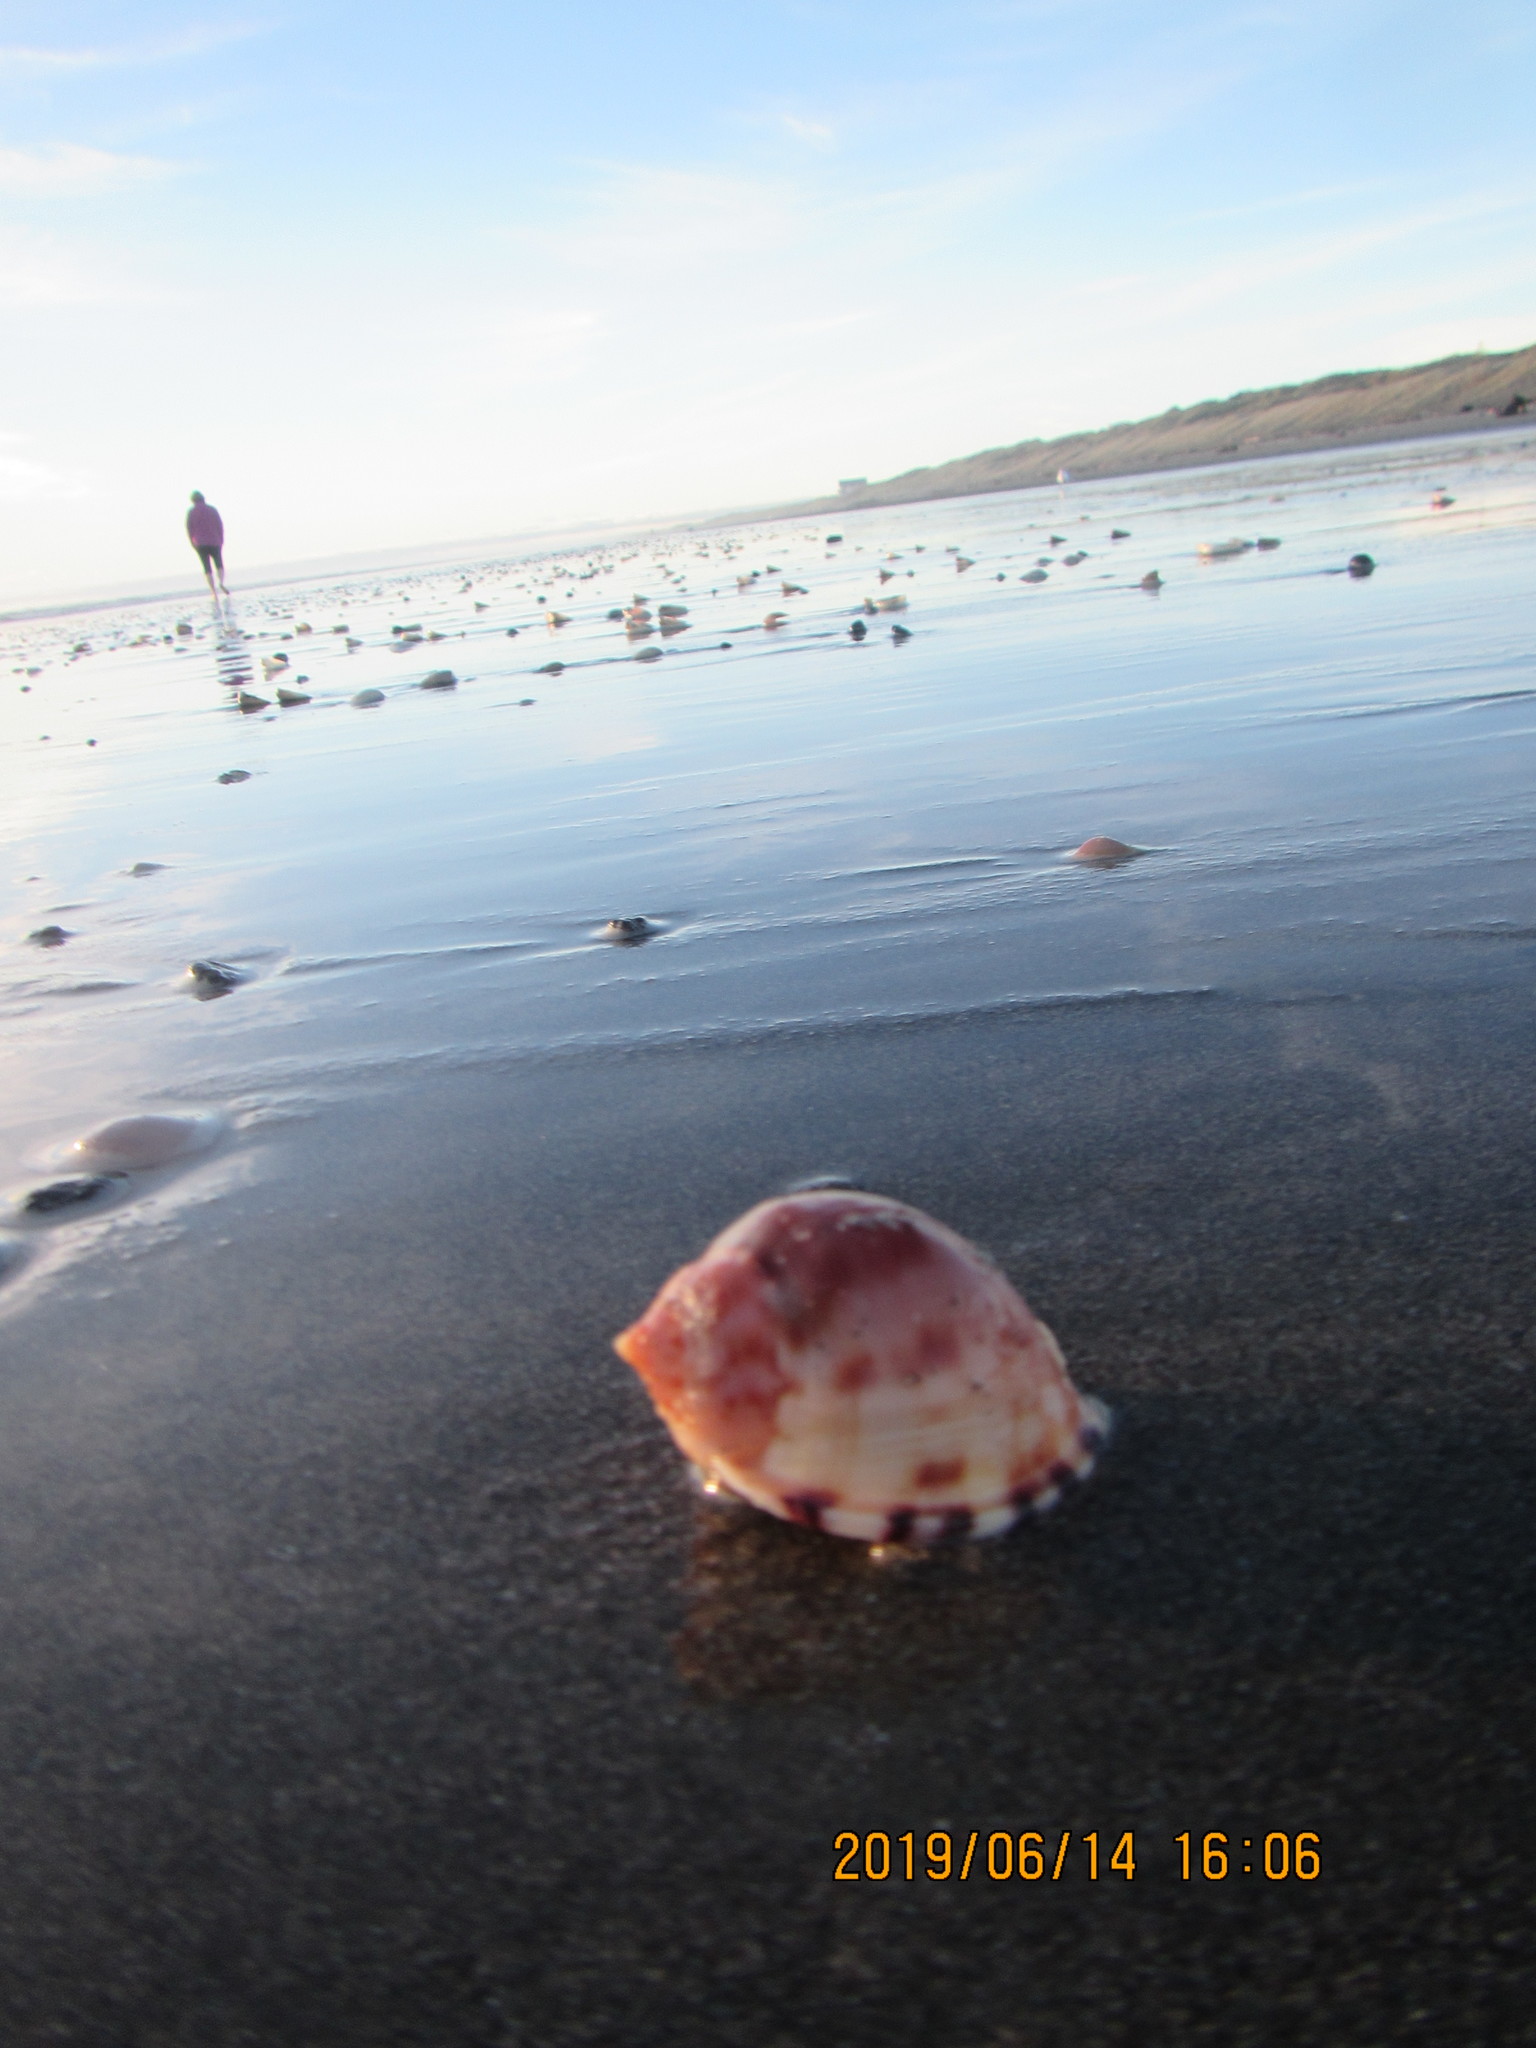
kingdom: Animalia
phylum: Mollusca
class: Gastropoda
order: Littorinimorpha
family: Cassidae
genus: Semicassis
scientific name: Semicassis pyrum
